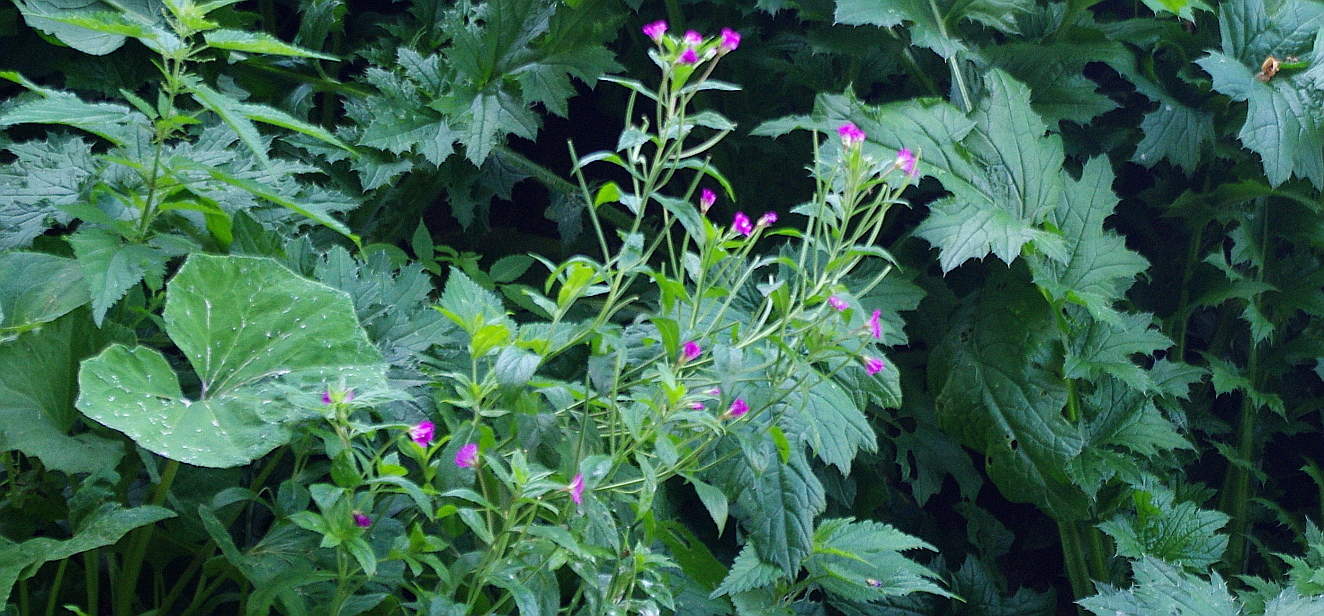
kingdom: Plantae
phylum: Tracheophyta
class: Magnoliopsida
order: Myrtales
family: Onagraceae
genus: Epilobium
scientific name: Epilobium hirsutum
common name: Great willowherb
